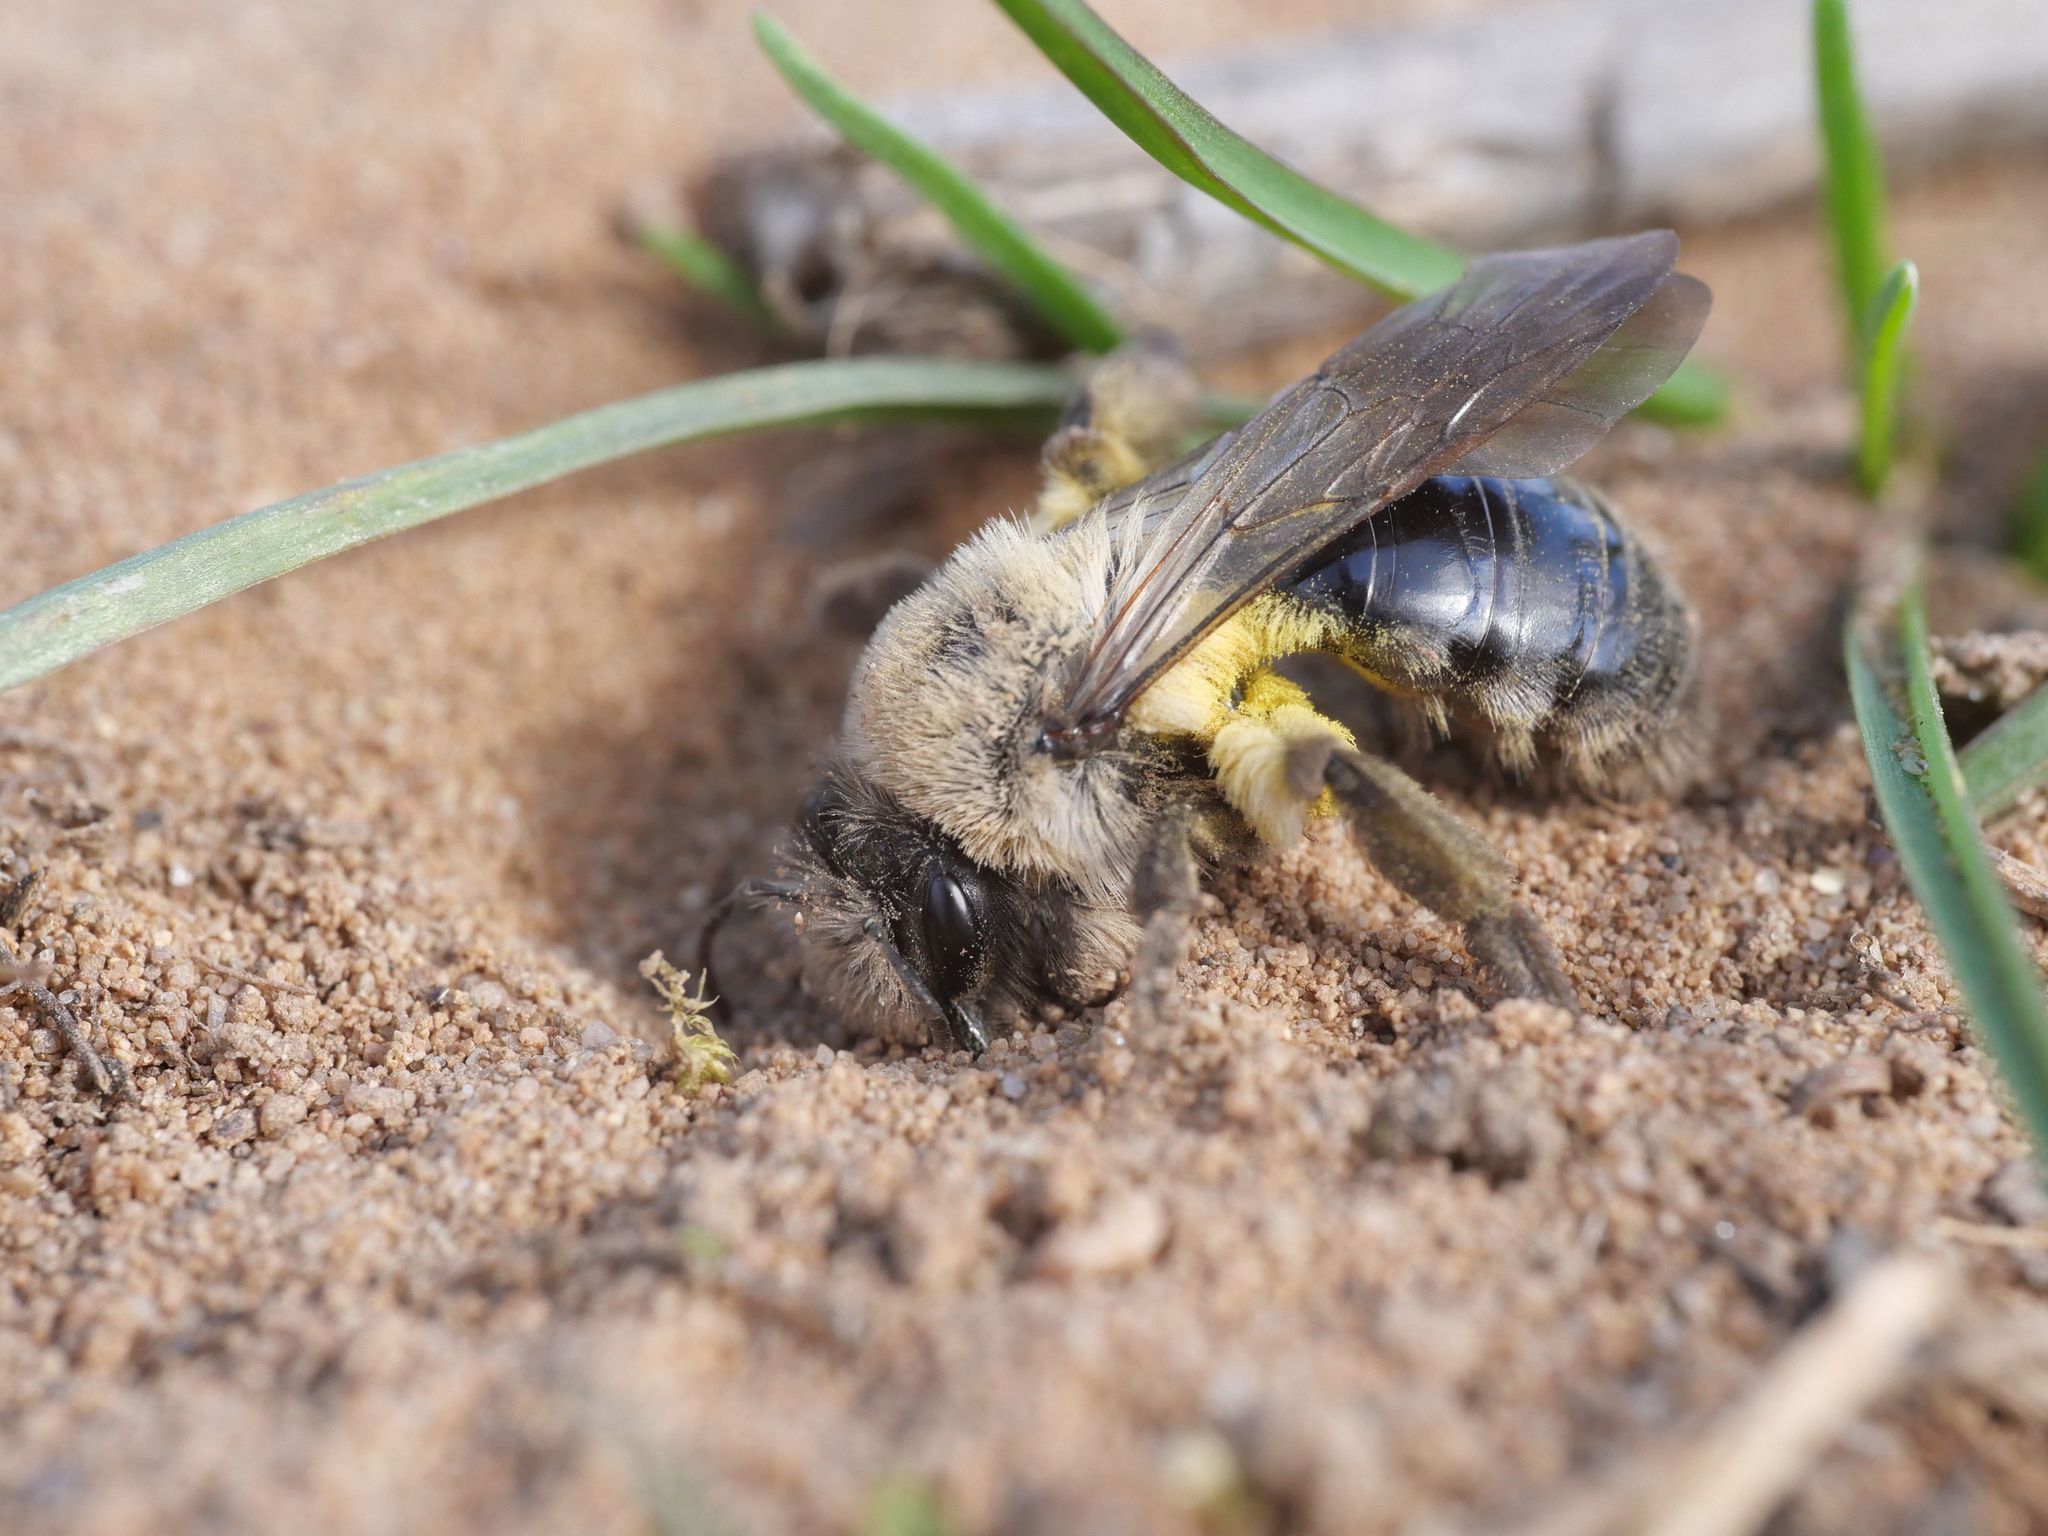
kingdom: Animalia
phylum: Arthropoda
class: Insecta
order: Hymenoptera
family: Andrenidae
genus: Andrena
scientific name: Andrena vaga
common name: Grey-backed mining bee
